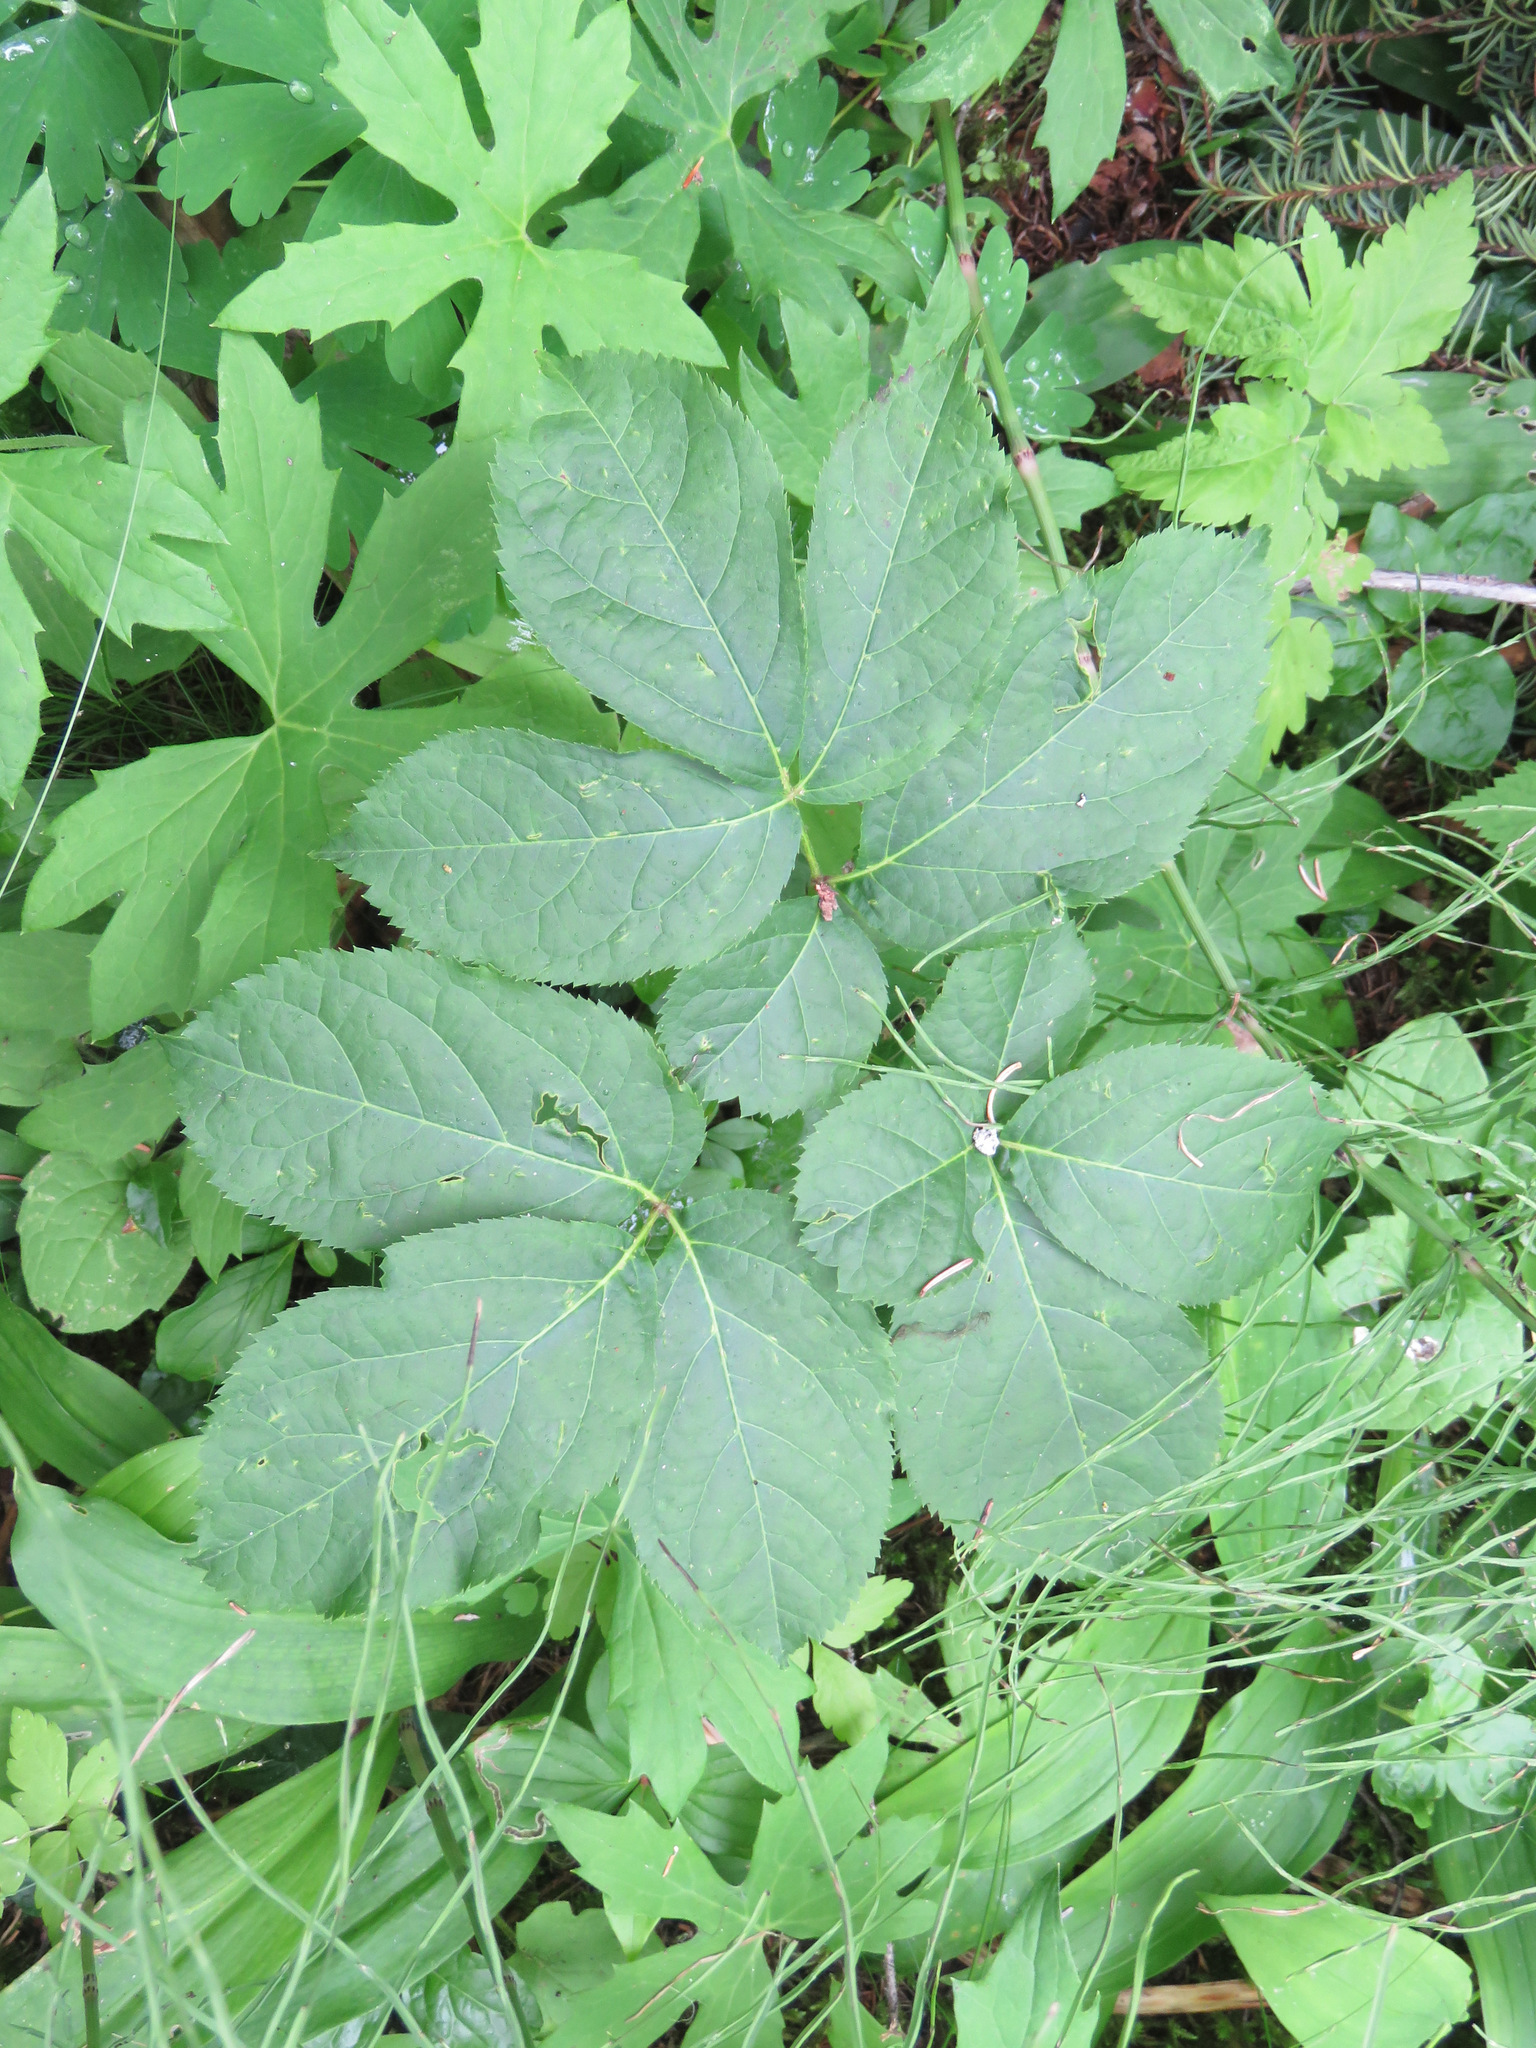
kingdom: Plantae
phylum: Tracheophyta
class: Magnoliopsida
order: Apiales
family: Araliaceae
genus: Aralia
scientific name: Aralia nudicaulis
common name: Wild sarsaparilla
